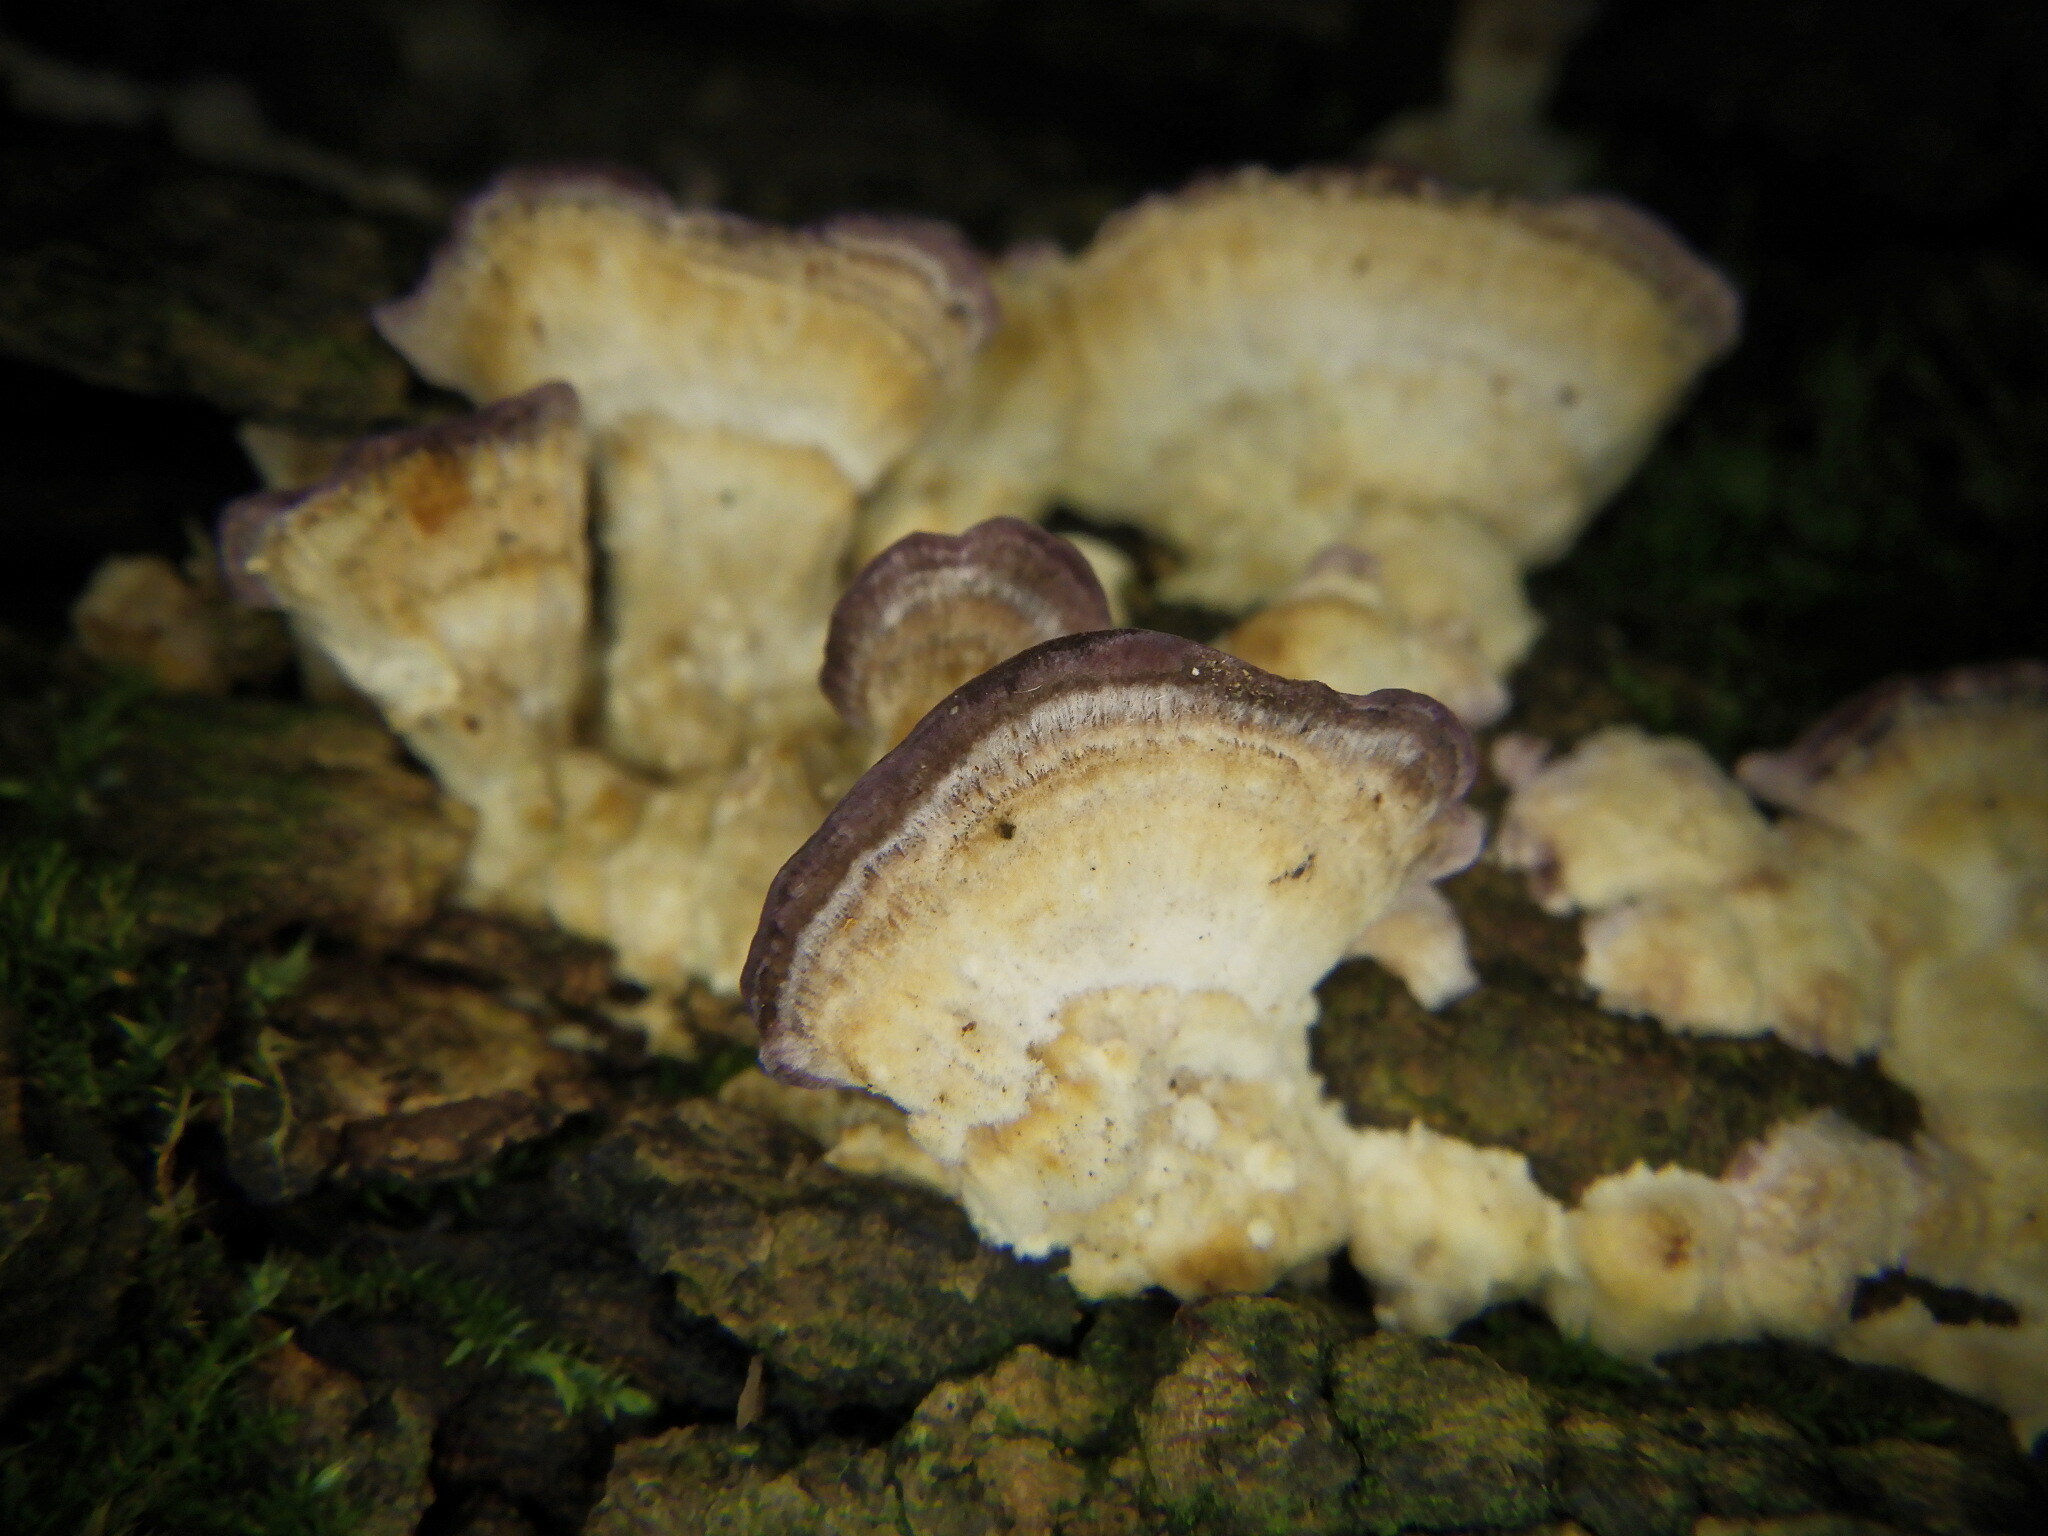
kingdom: Fungi
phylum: Basidiomycota
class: Agaricomycetes
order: Hymenochaetales
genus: Trichaptum
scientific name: Trichaptum biforme
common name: Violet-toothed polypore
